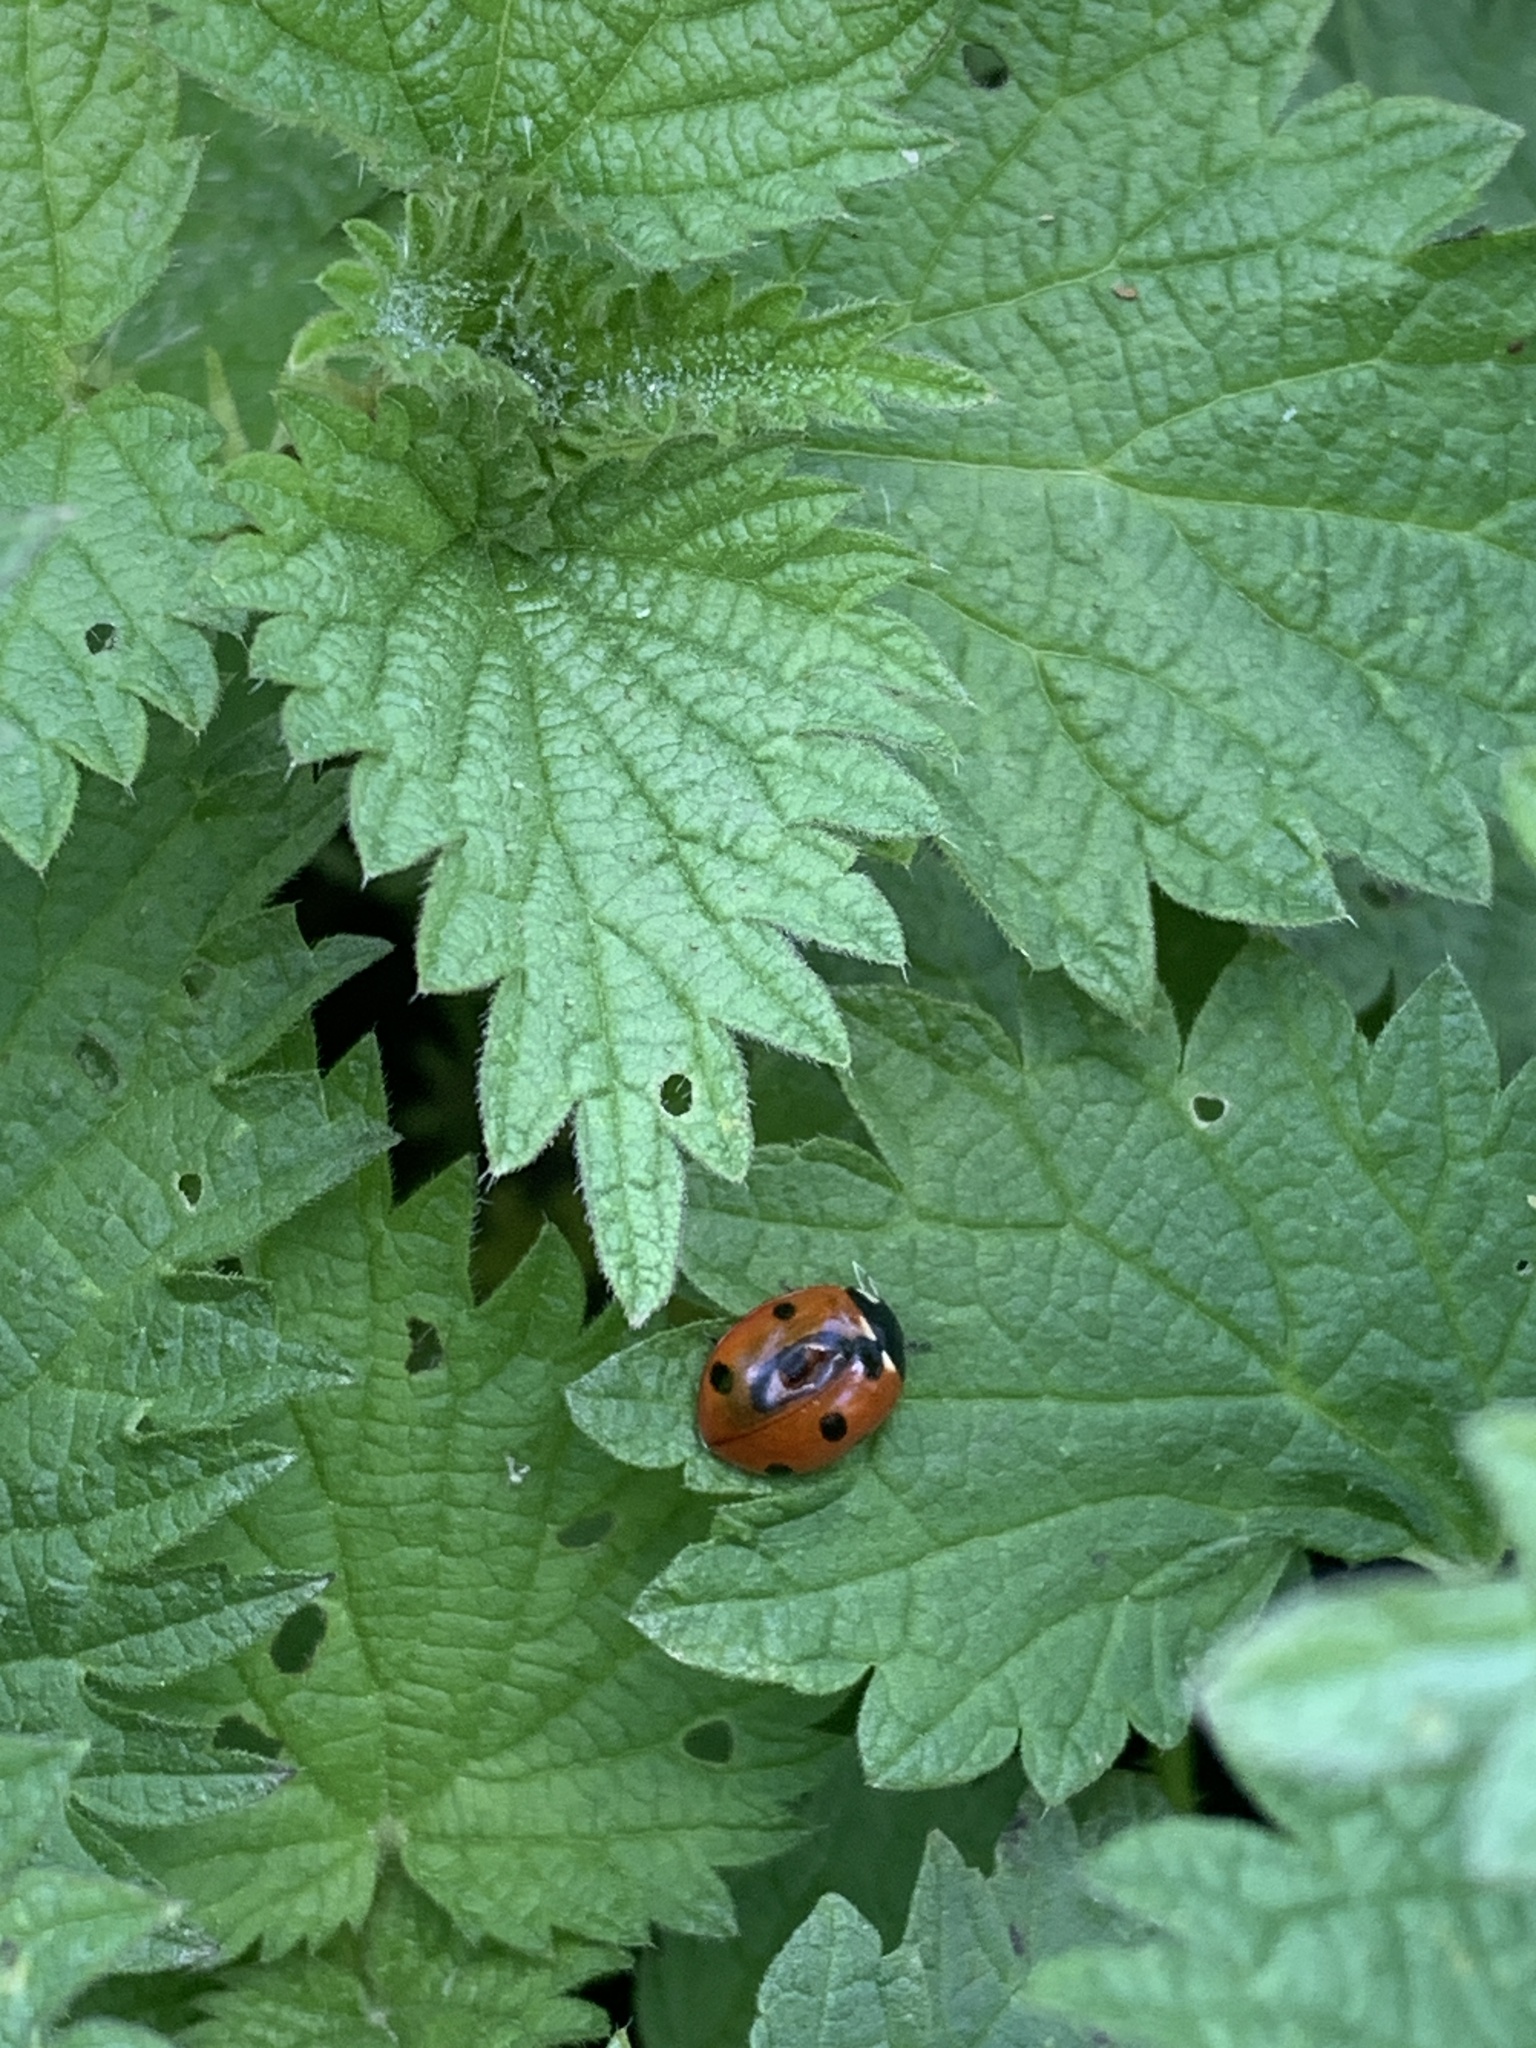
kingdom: Animalia
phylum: Arthropoda
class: Insecta
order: Coleoptera
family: Coccinellidae
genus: Coccinella
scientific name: Coccinella septempunctata
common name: Sevenspotted lady beetle
